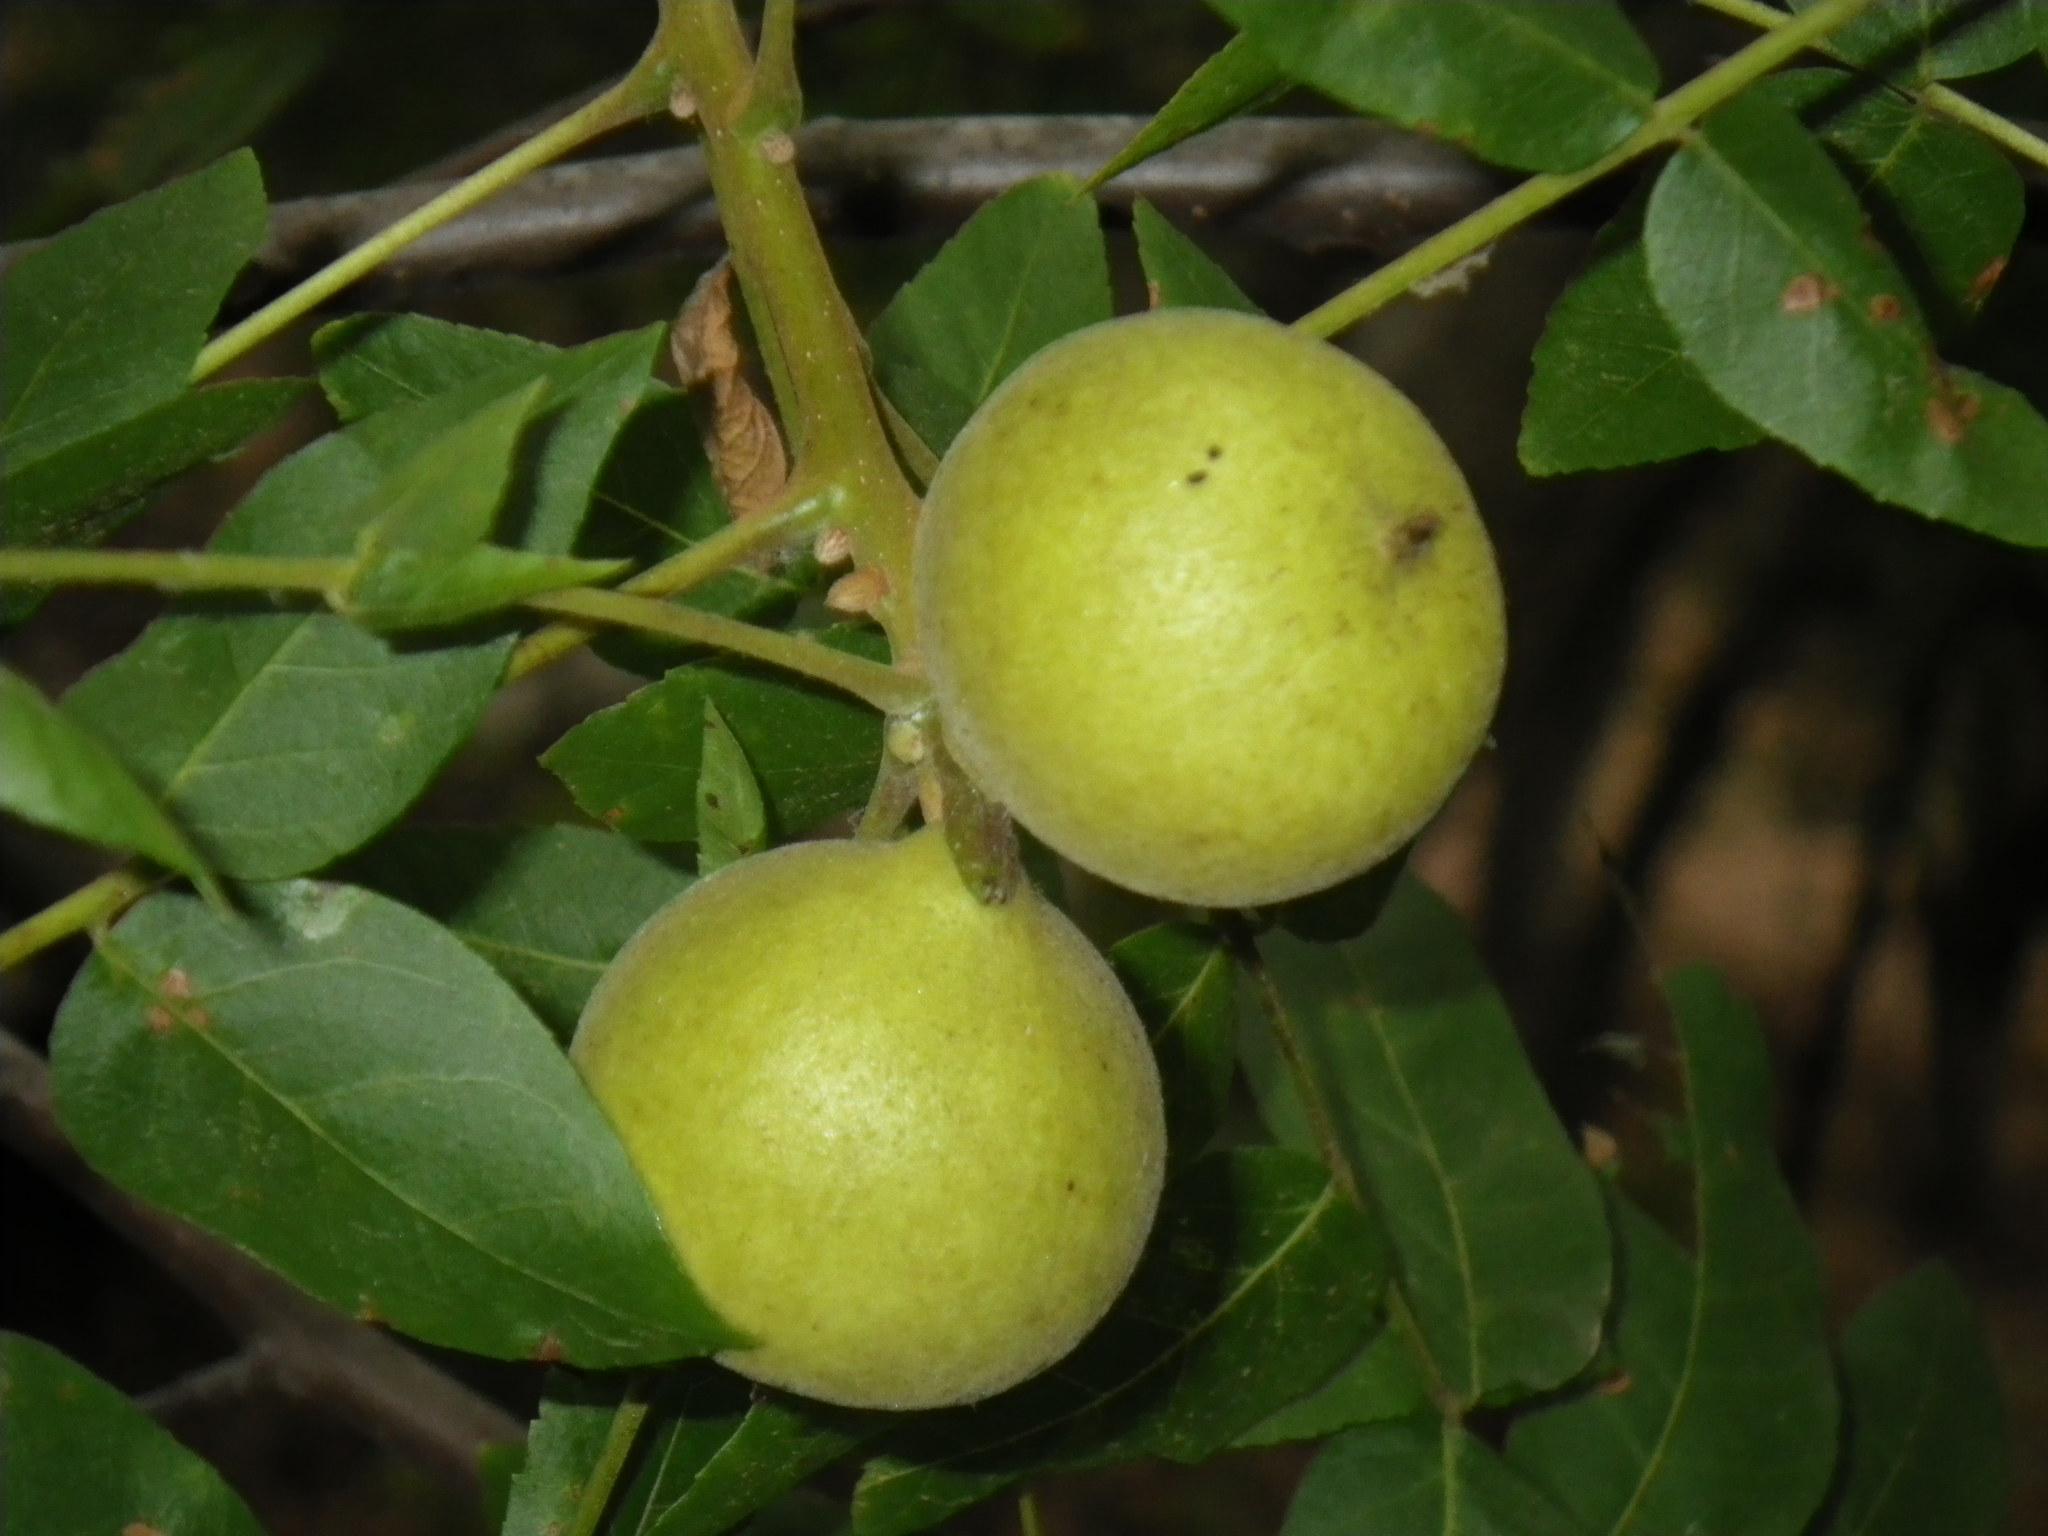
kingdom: Plantae
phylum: Tracheophyta
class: Magnoliopsida
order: Fagales
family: Juglandaceae
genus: Juglans
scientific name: Juglans californica
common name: Southern california black walnut
